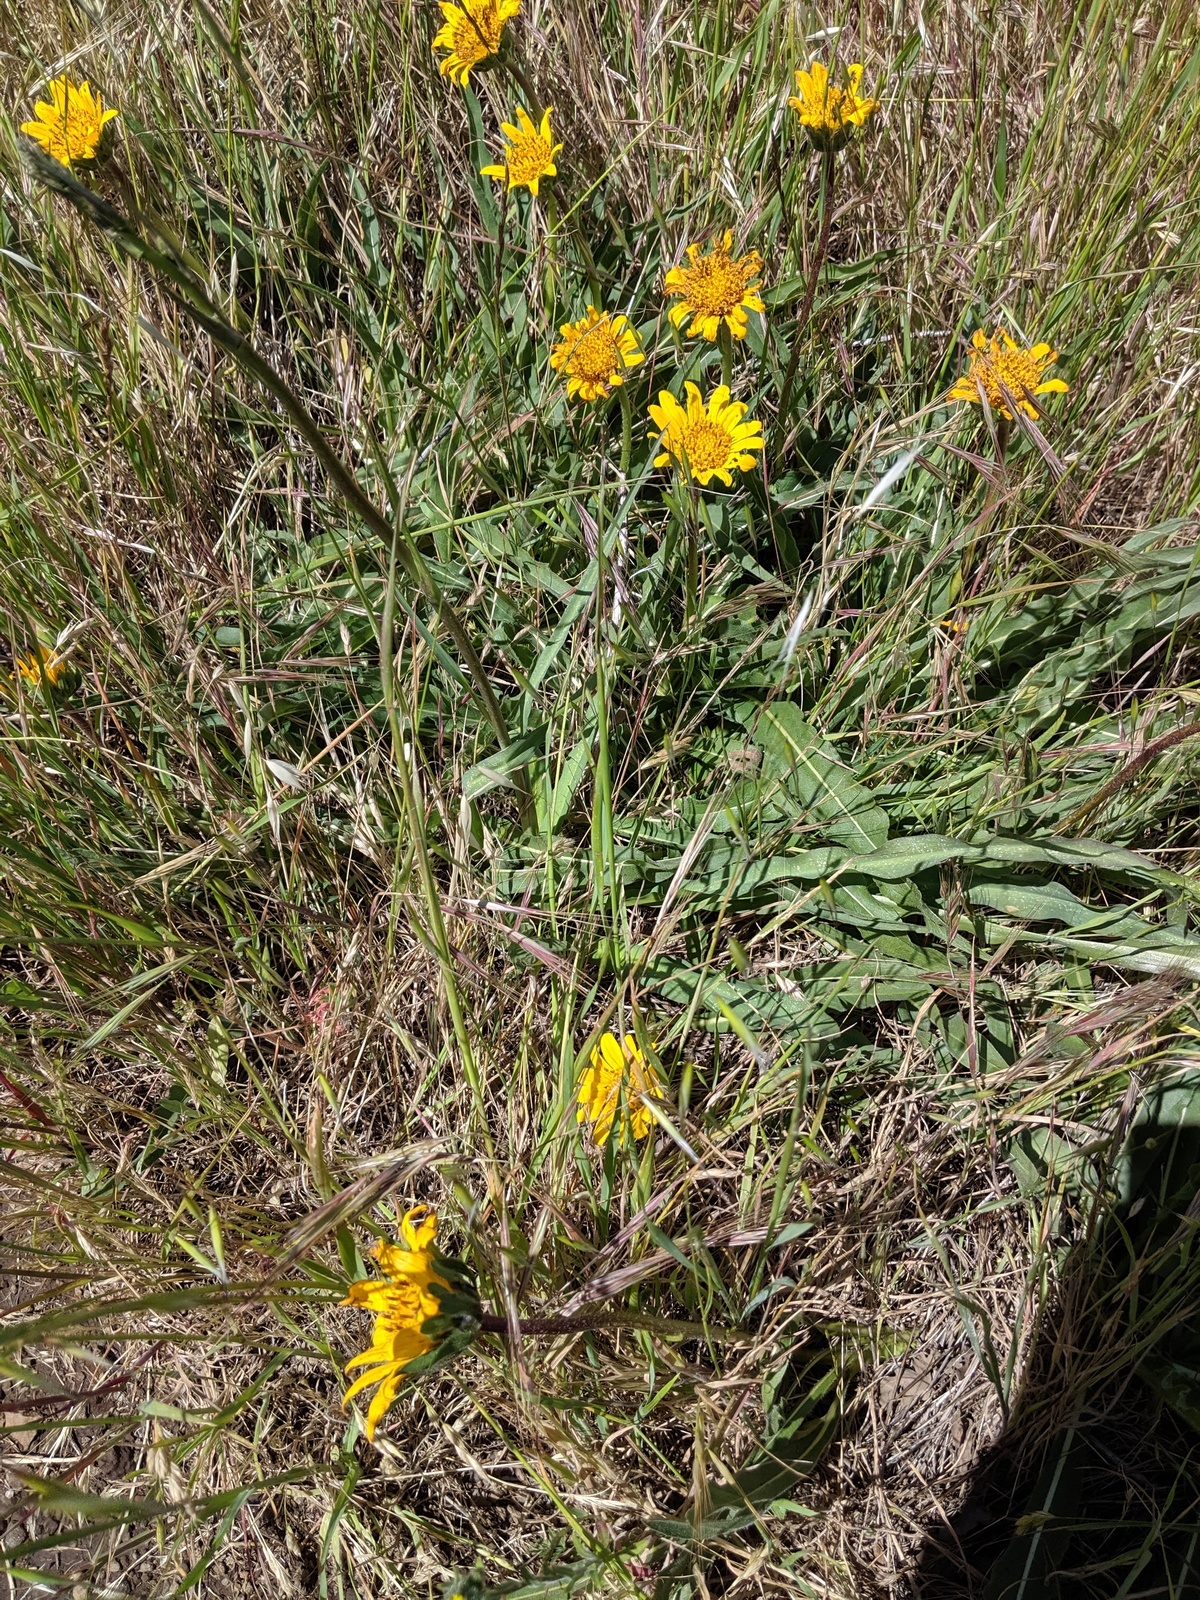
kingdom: Plantae
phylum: Tracheophyta
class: Magnoliopsida
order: Asterales
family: Asteraceae
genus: Wyethia
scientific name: Wyethia angustifolia
